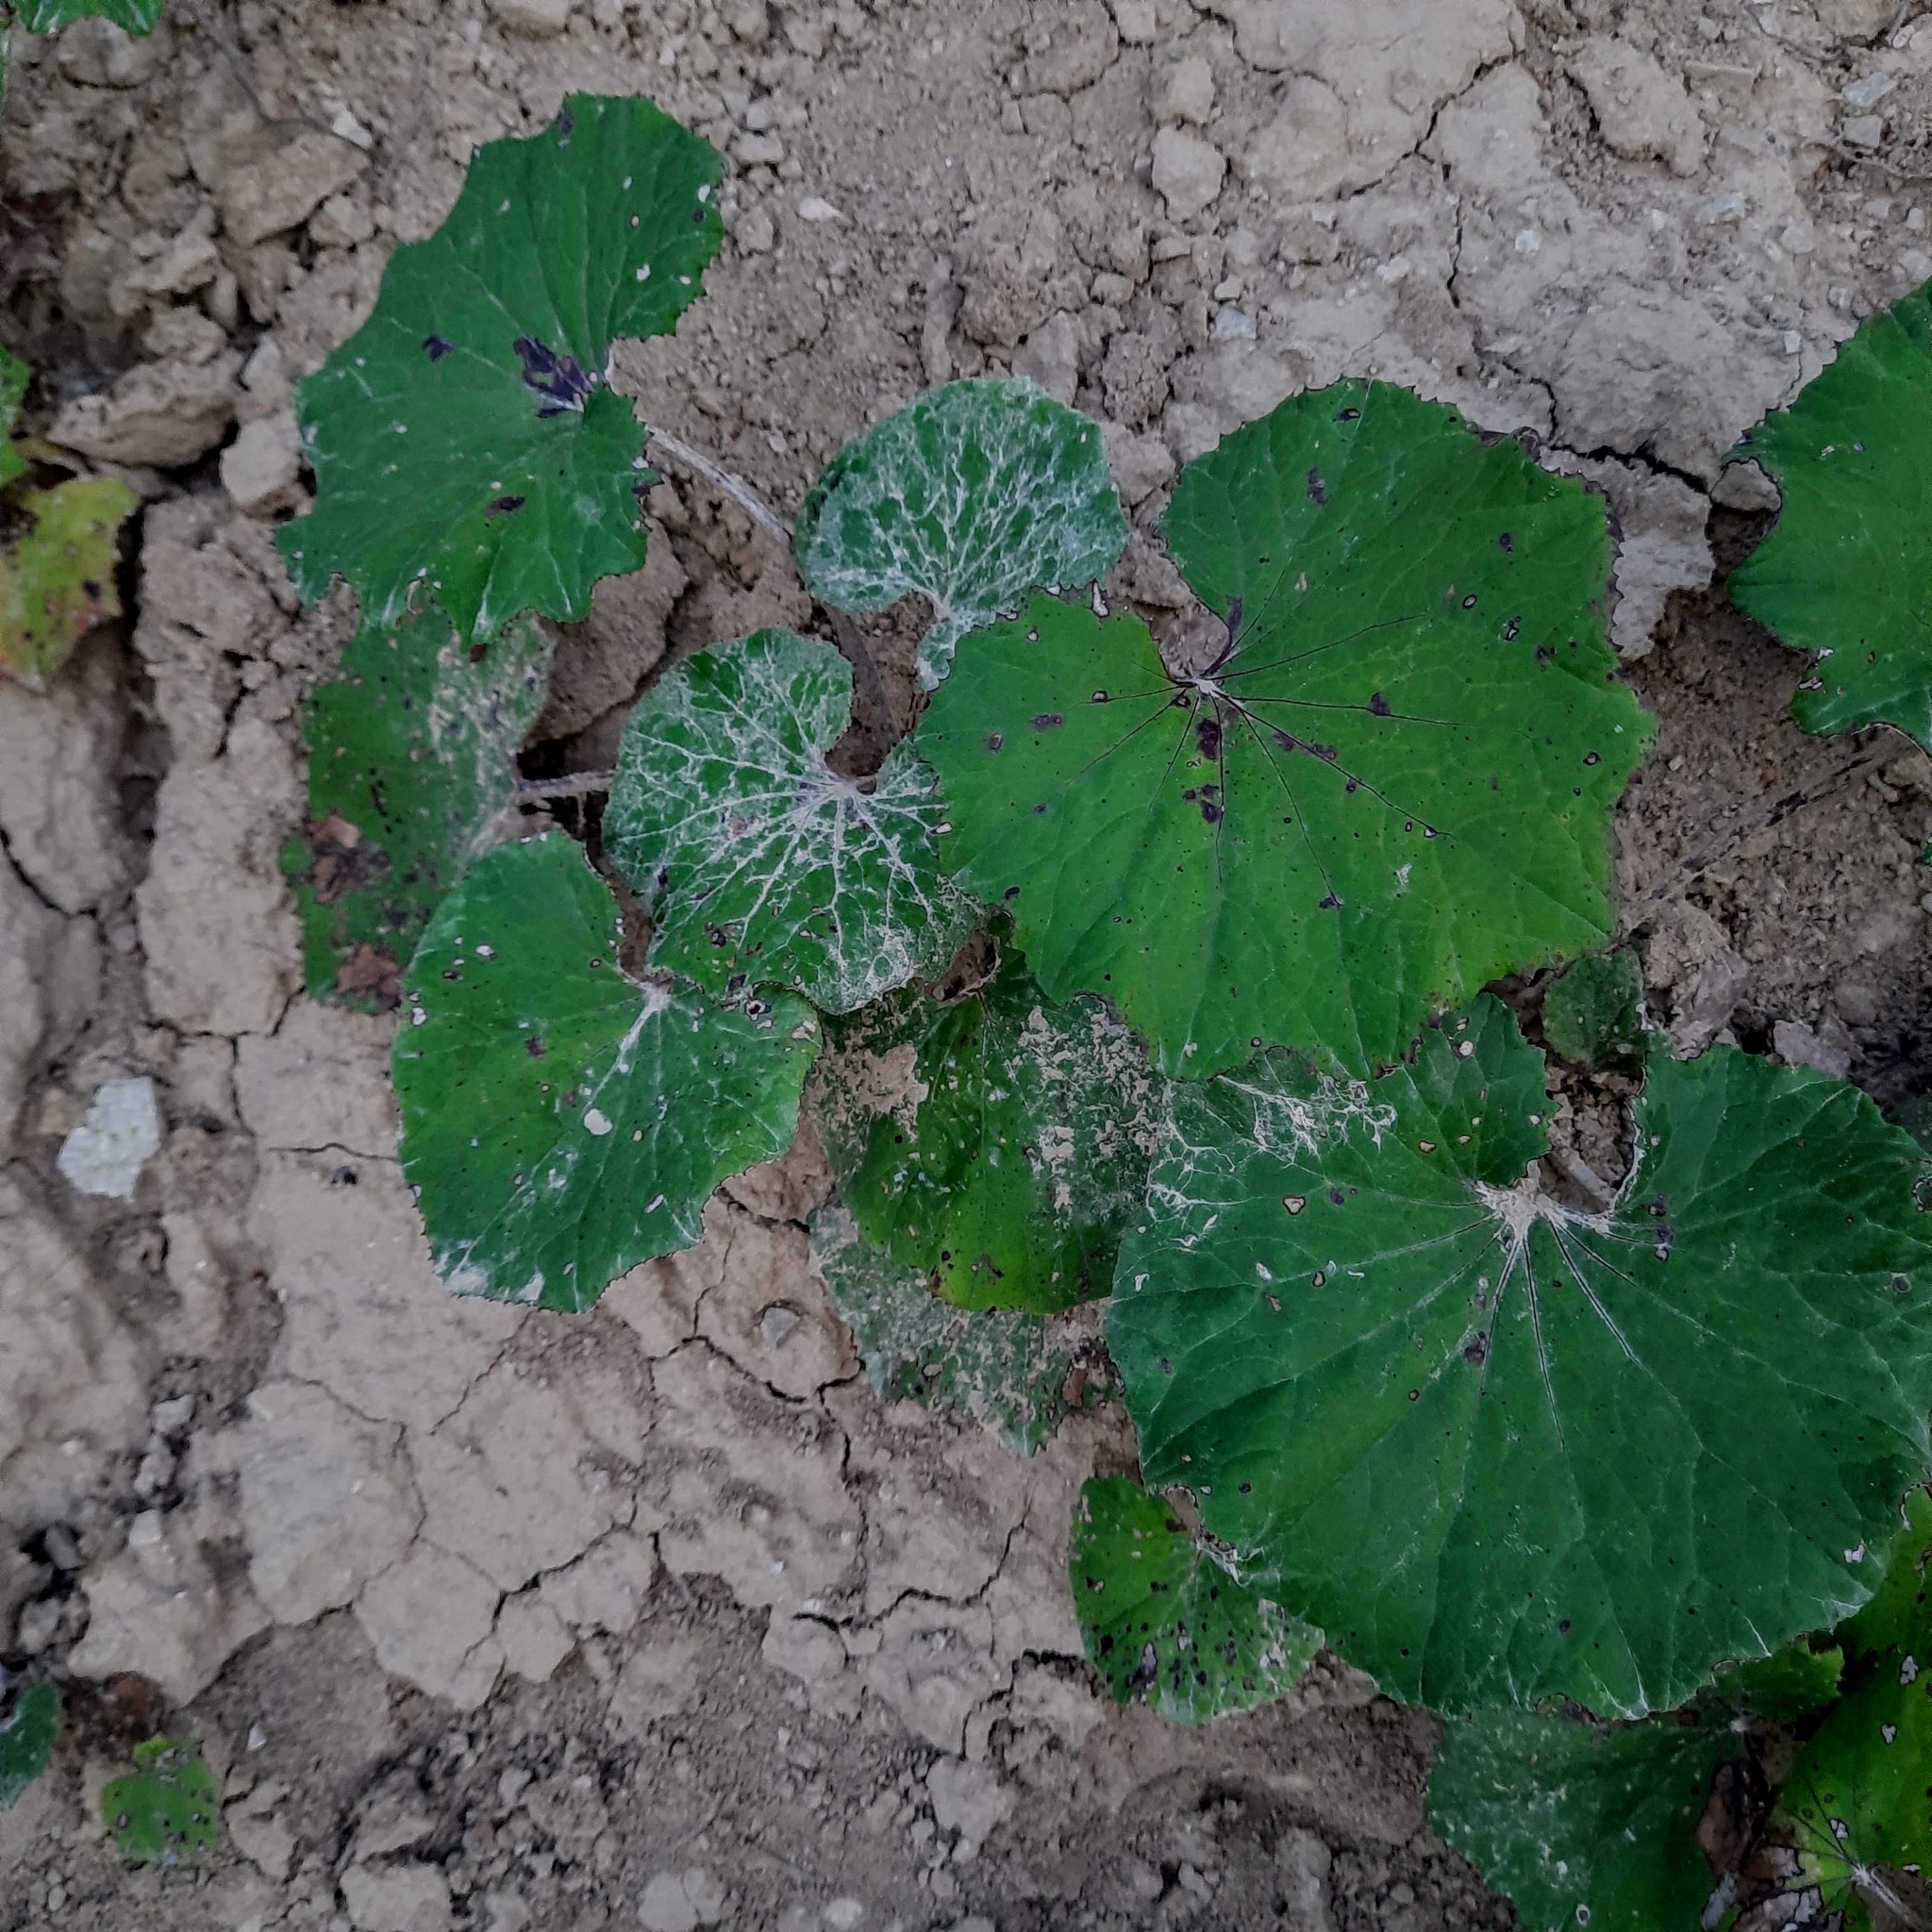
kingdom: Plantae
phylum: Tracheophyta
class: Magnoliopsida
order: Asterales
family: Asteraceae
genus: Tussilago
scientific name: Tussilago farfara
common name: Coltsfoot
